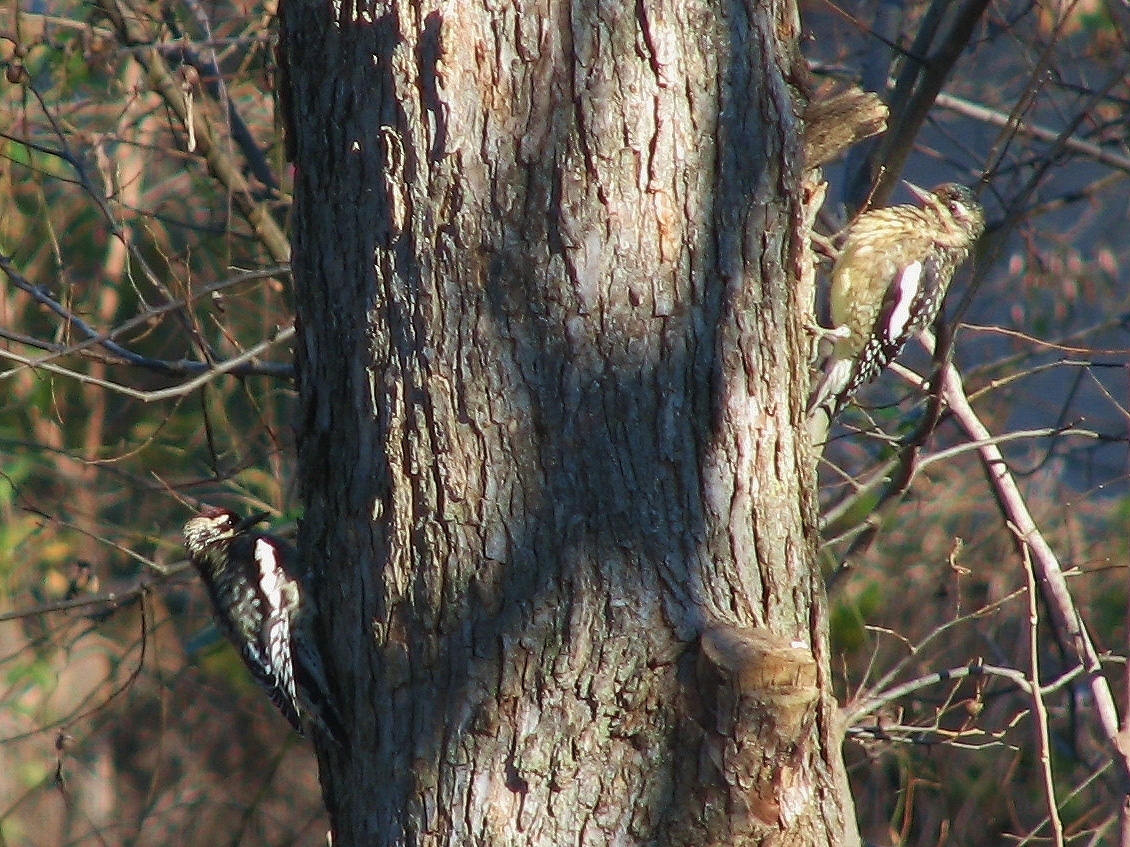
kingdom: Animalia
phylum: Chordata
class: Aves
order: Piciformes
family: Picidae
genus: Sphyrapicus
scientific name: Sphyrapicus varius
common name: Yellow-bellied sapsucker
